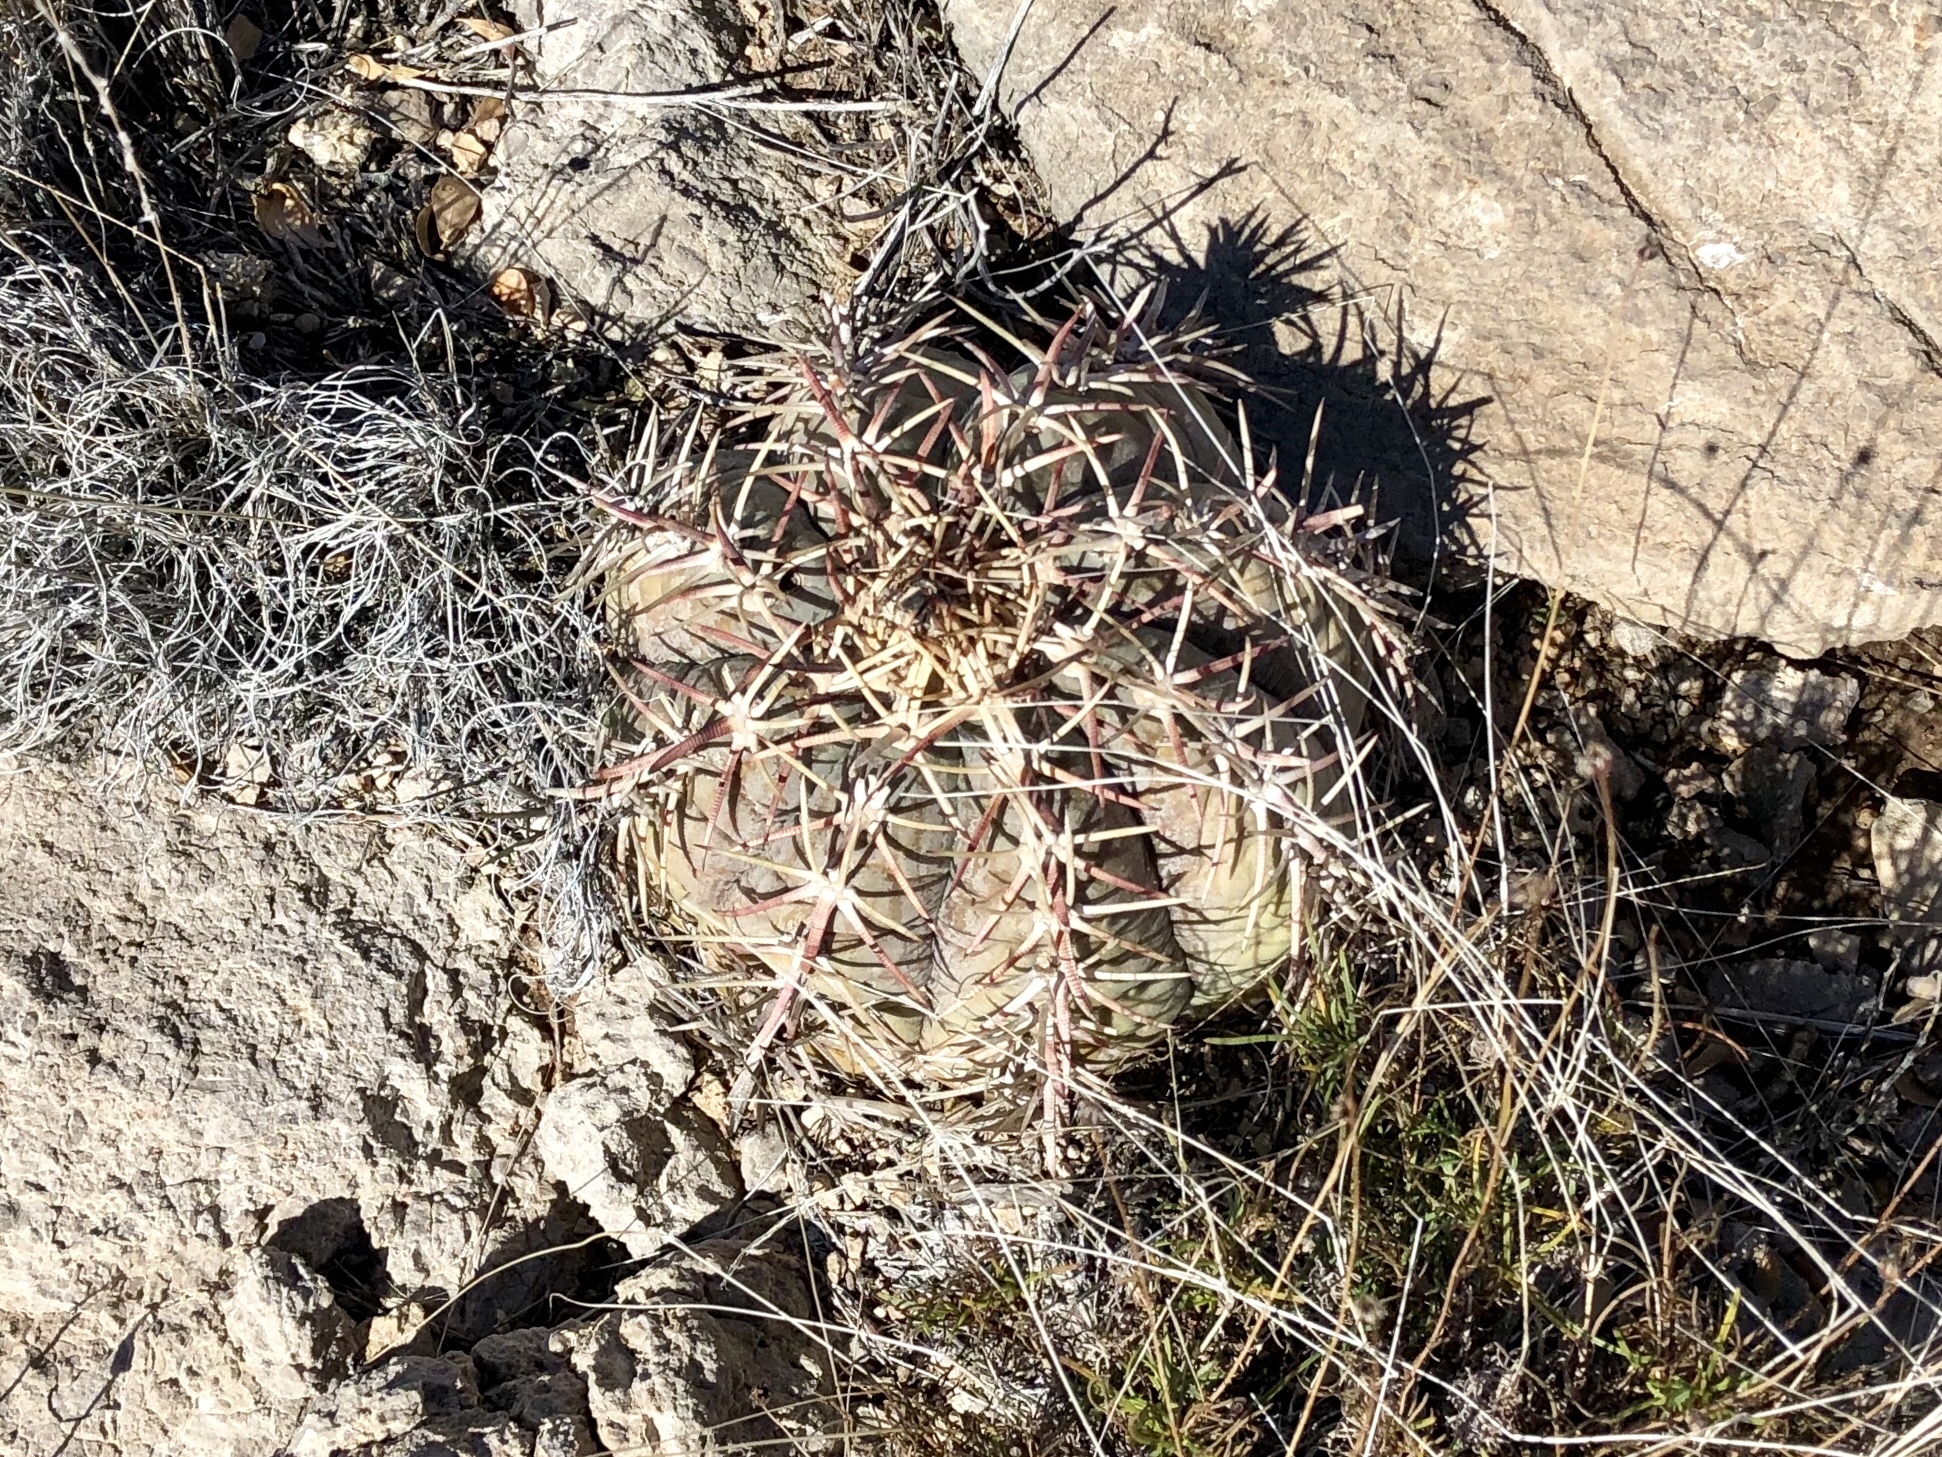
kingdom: Plantae
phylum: Tracheophyta
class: Magnoliopsida
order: Caryophyllales
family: Cactaceae
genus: Echinocactus
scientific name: Echinocactus horizonthalonius
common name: Devilshead
